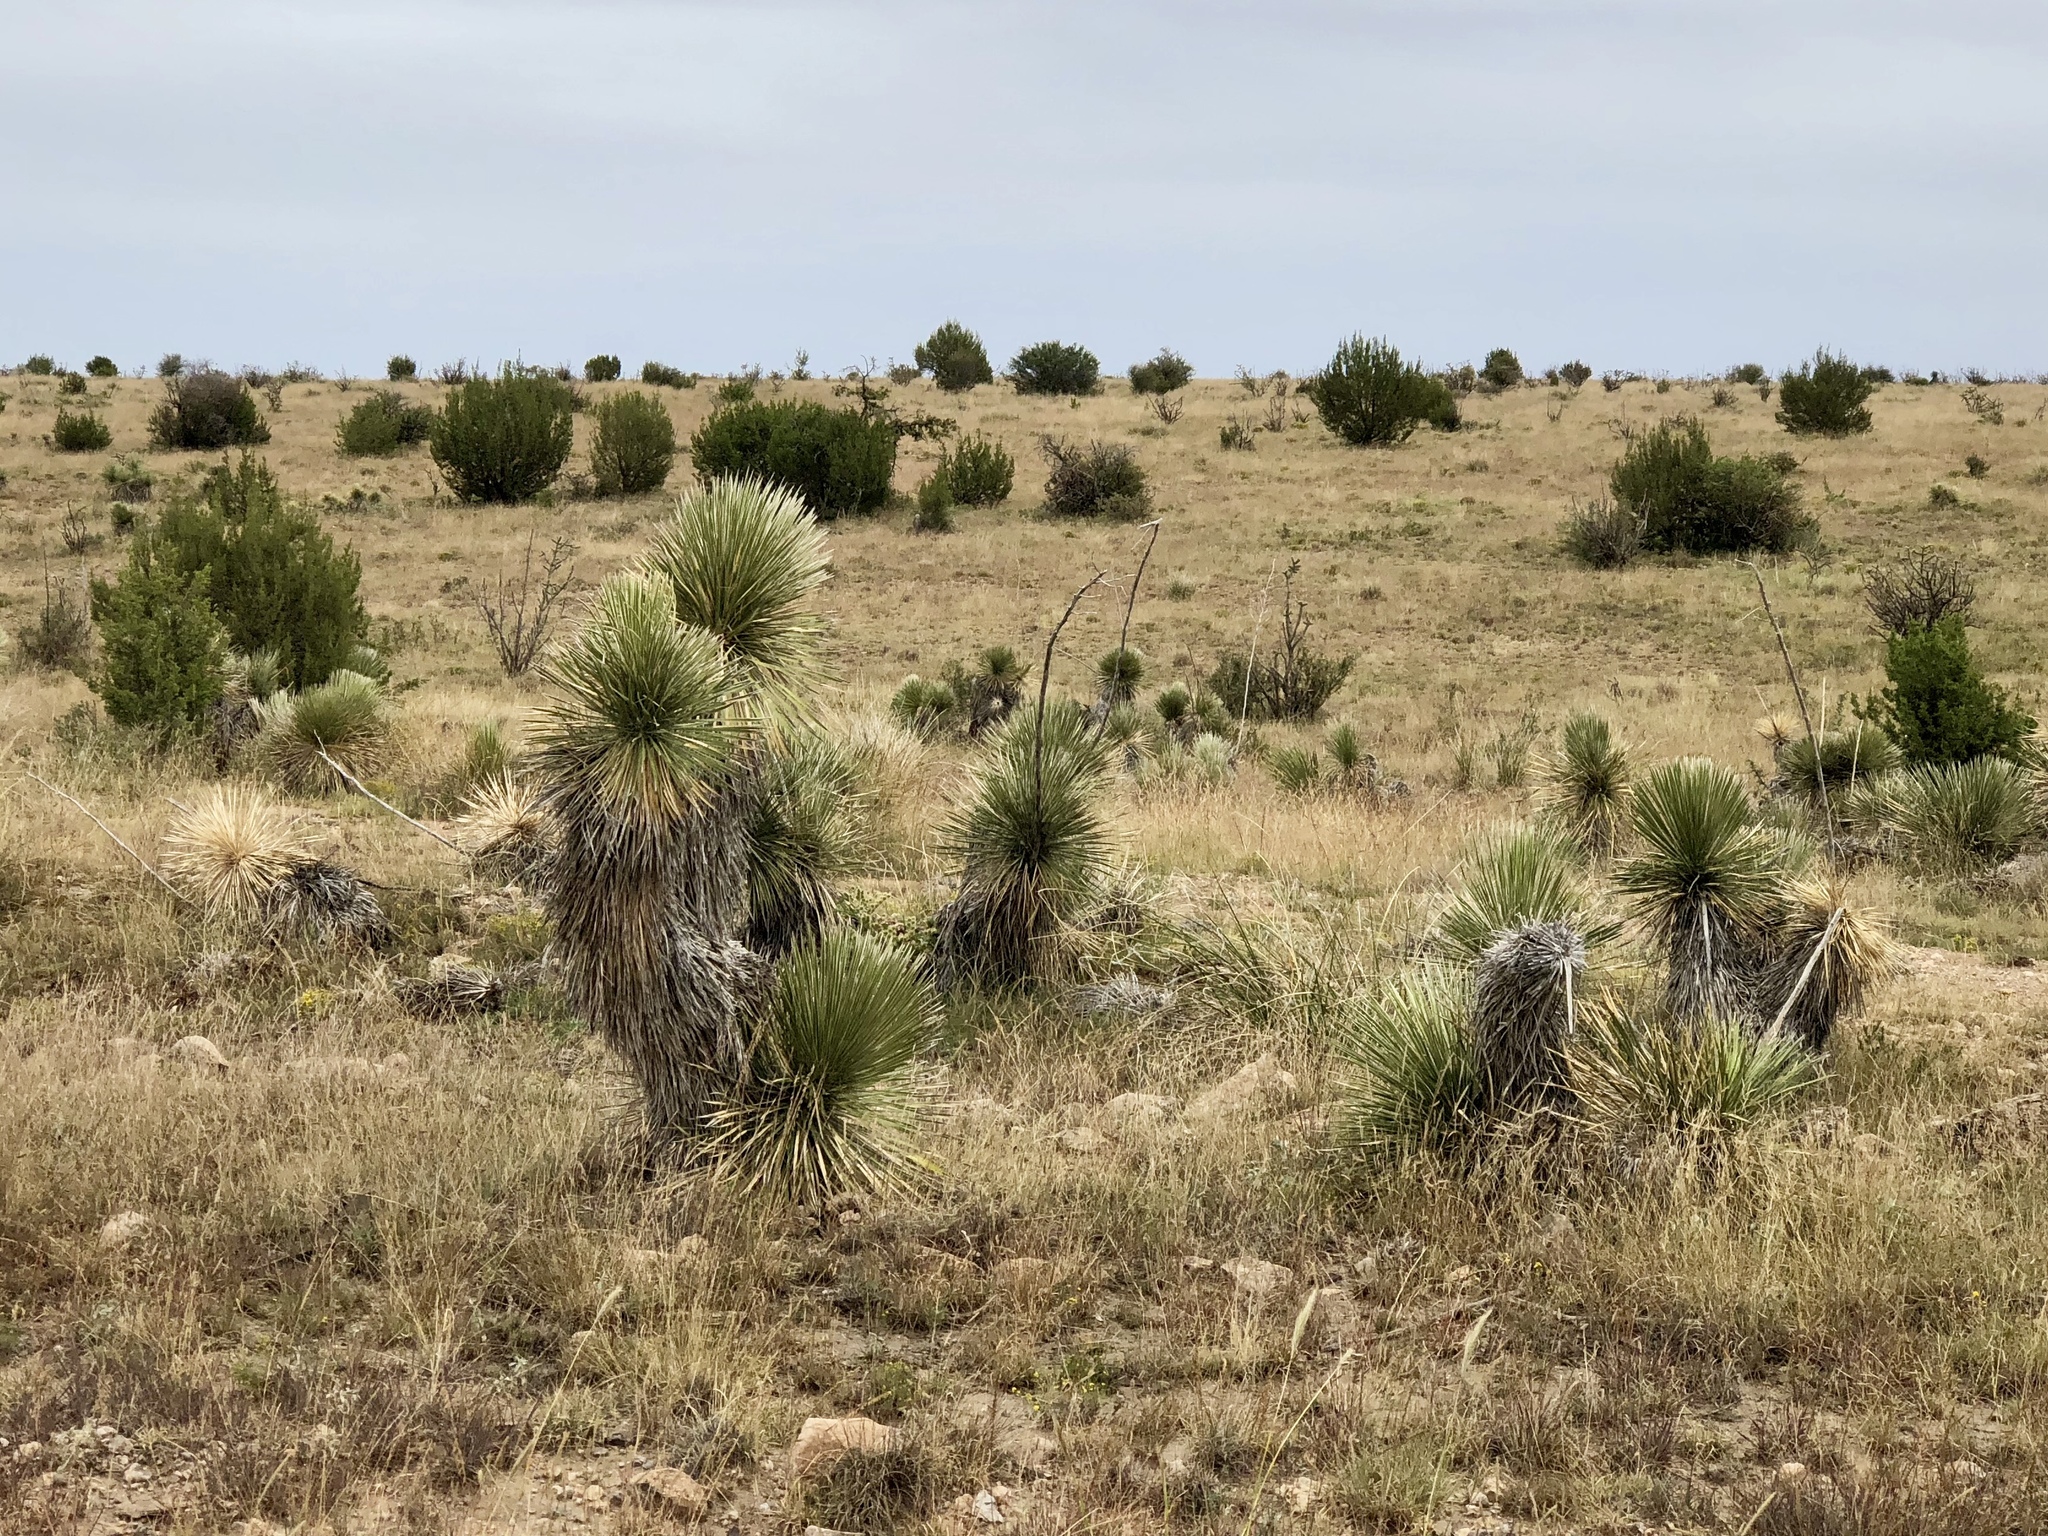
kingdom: Plantae
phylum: Tracheophyta
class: Liliopsida
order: Asparagales
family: Asparagaceae
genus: Yucca
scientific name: Yucca elata
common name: Palmella
